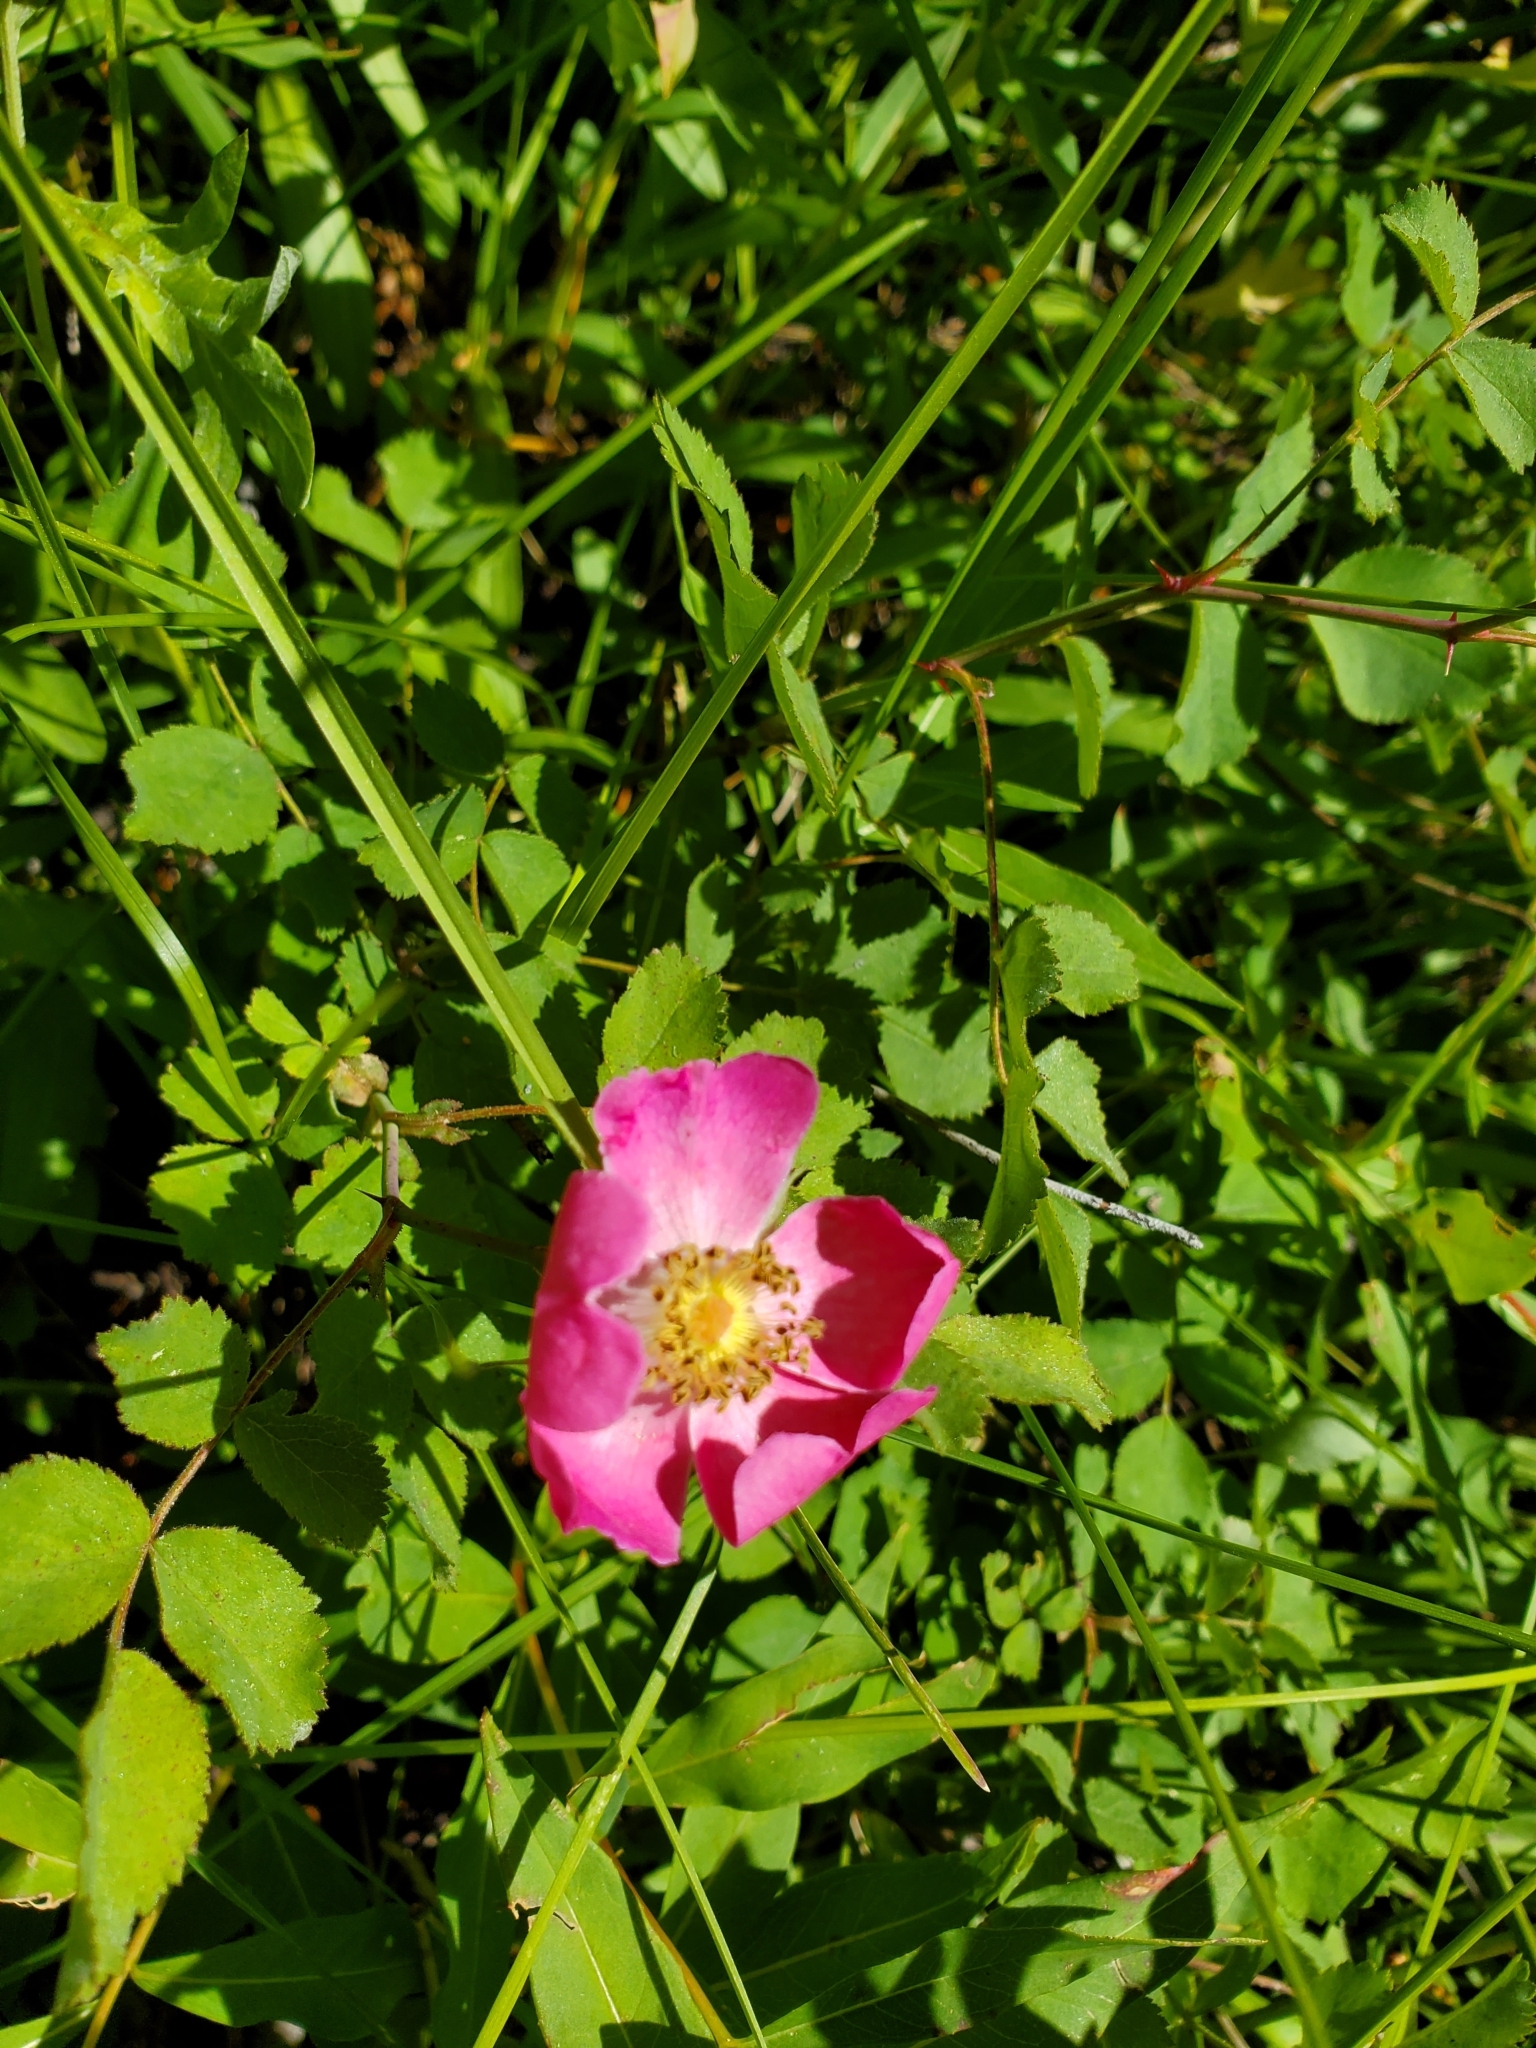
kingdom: Plantae
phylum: Tracheophyta
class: Magnoliopsida
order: Rosales
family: Rosaceae
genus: Rosa
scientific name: Rosa woodsii
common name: Woods's rose
